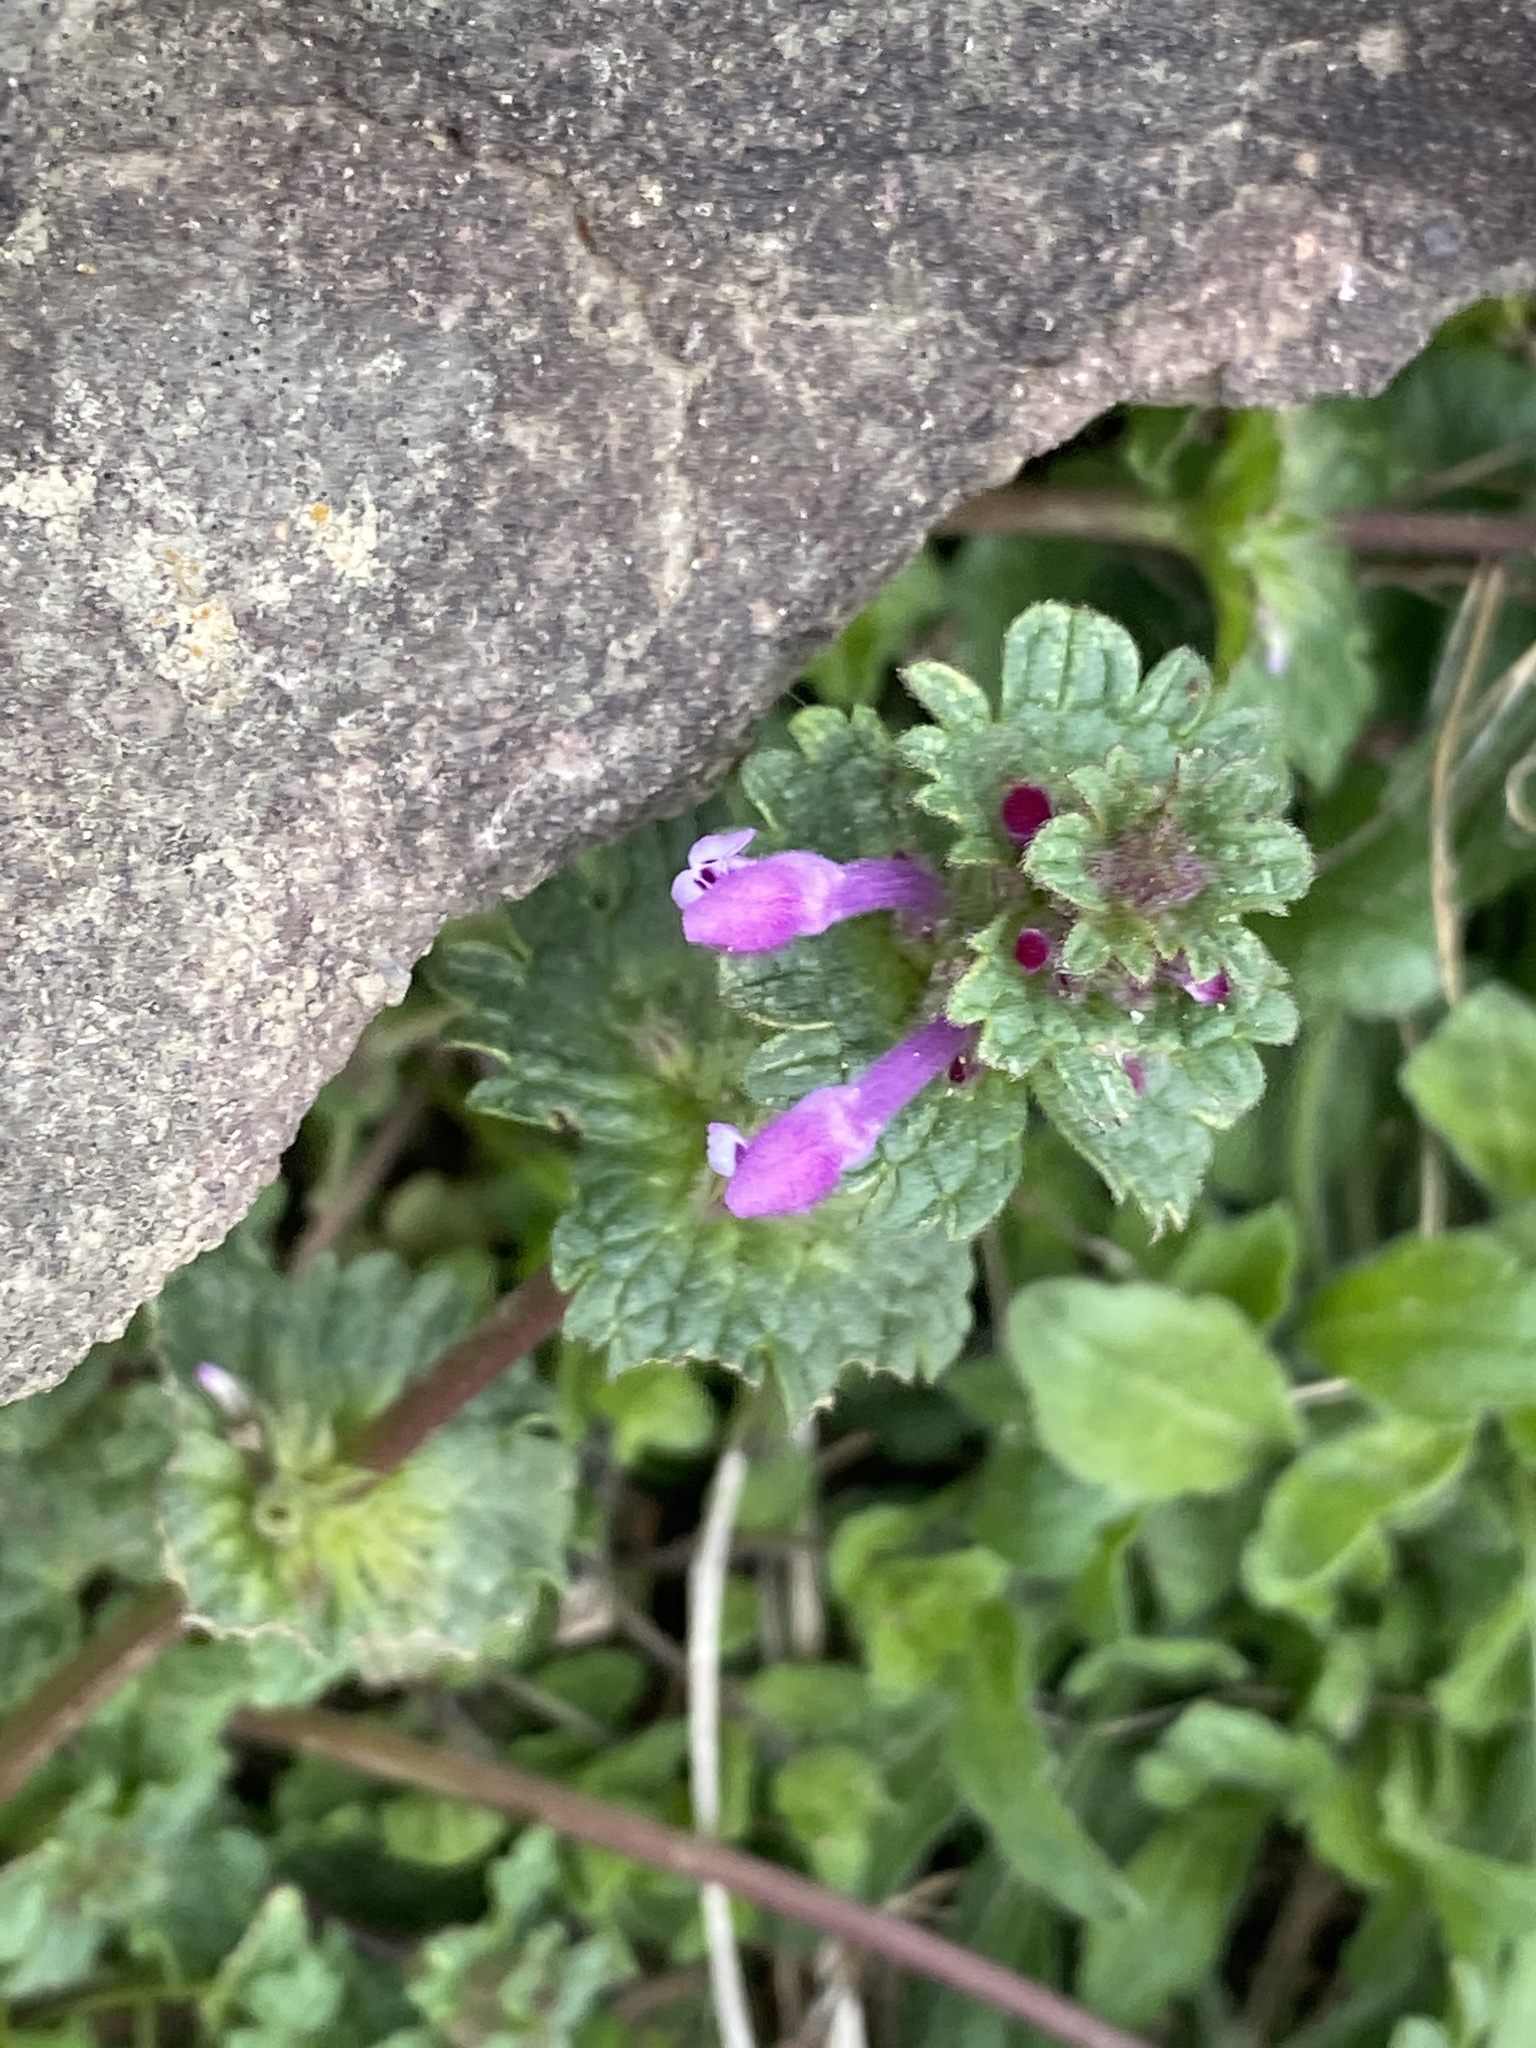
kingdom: Plantae
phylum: Tracheophyta
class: Magnoliopsida
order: Lamiales
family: Lamiaceae
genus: Lamium
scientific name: Lamium amplexicaule
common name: Henbit dead-nettle
